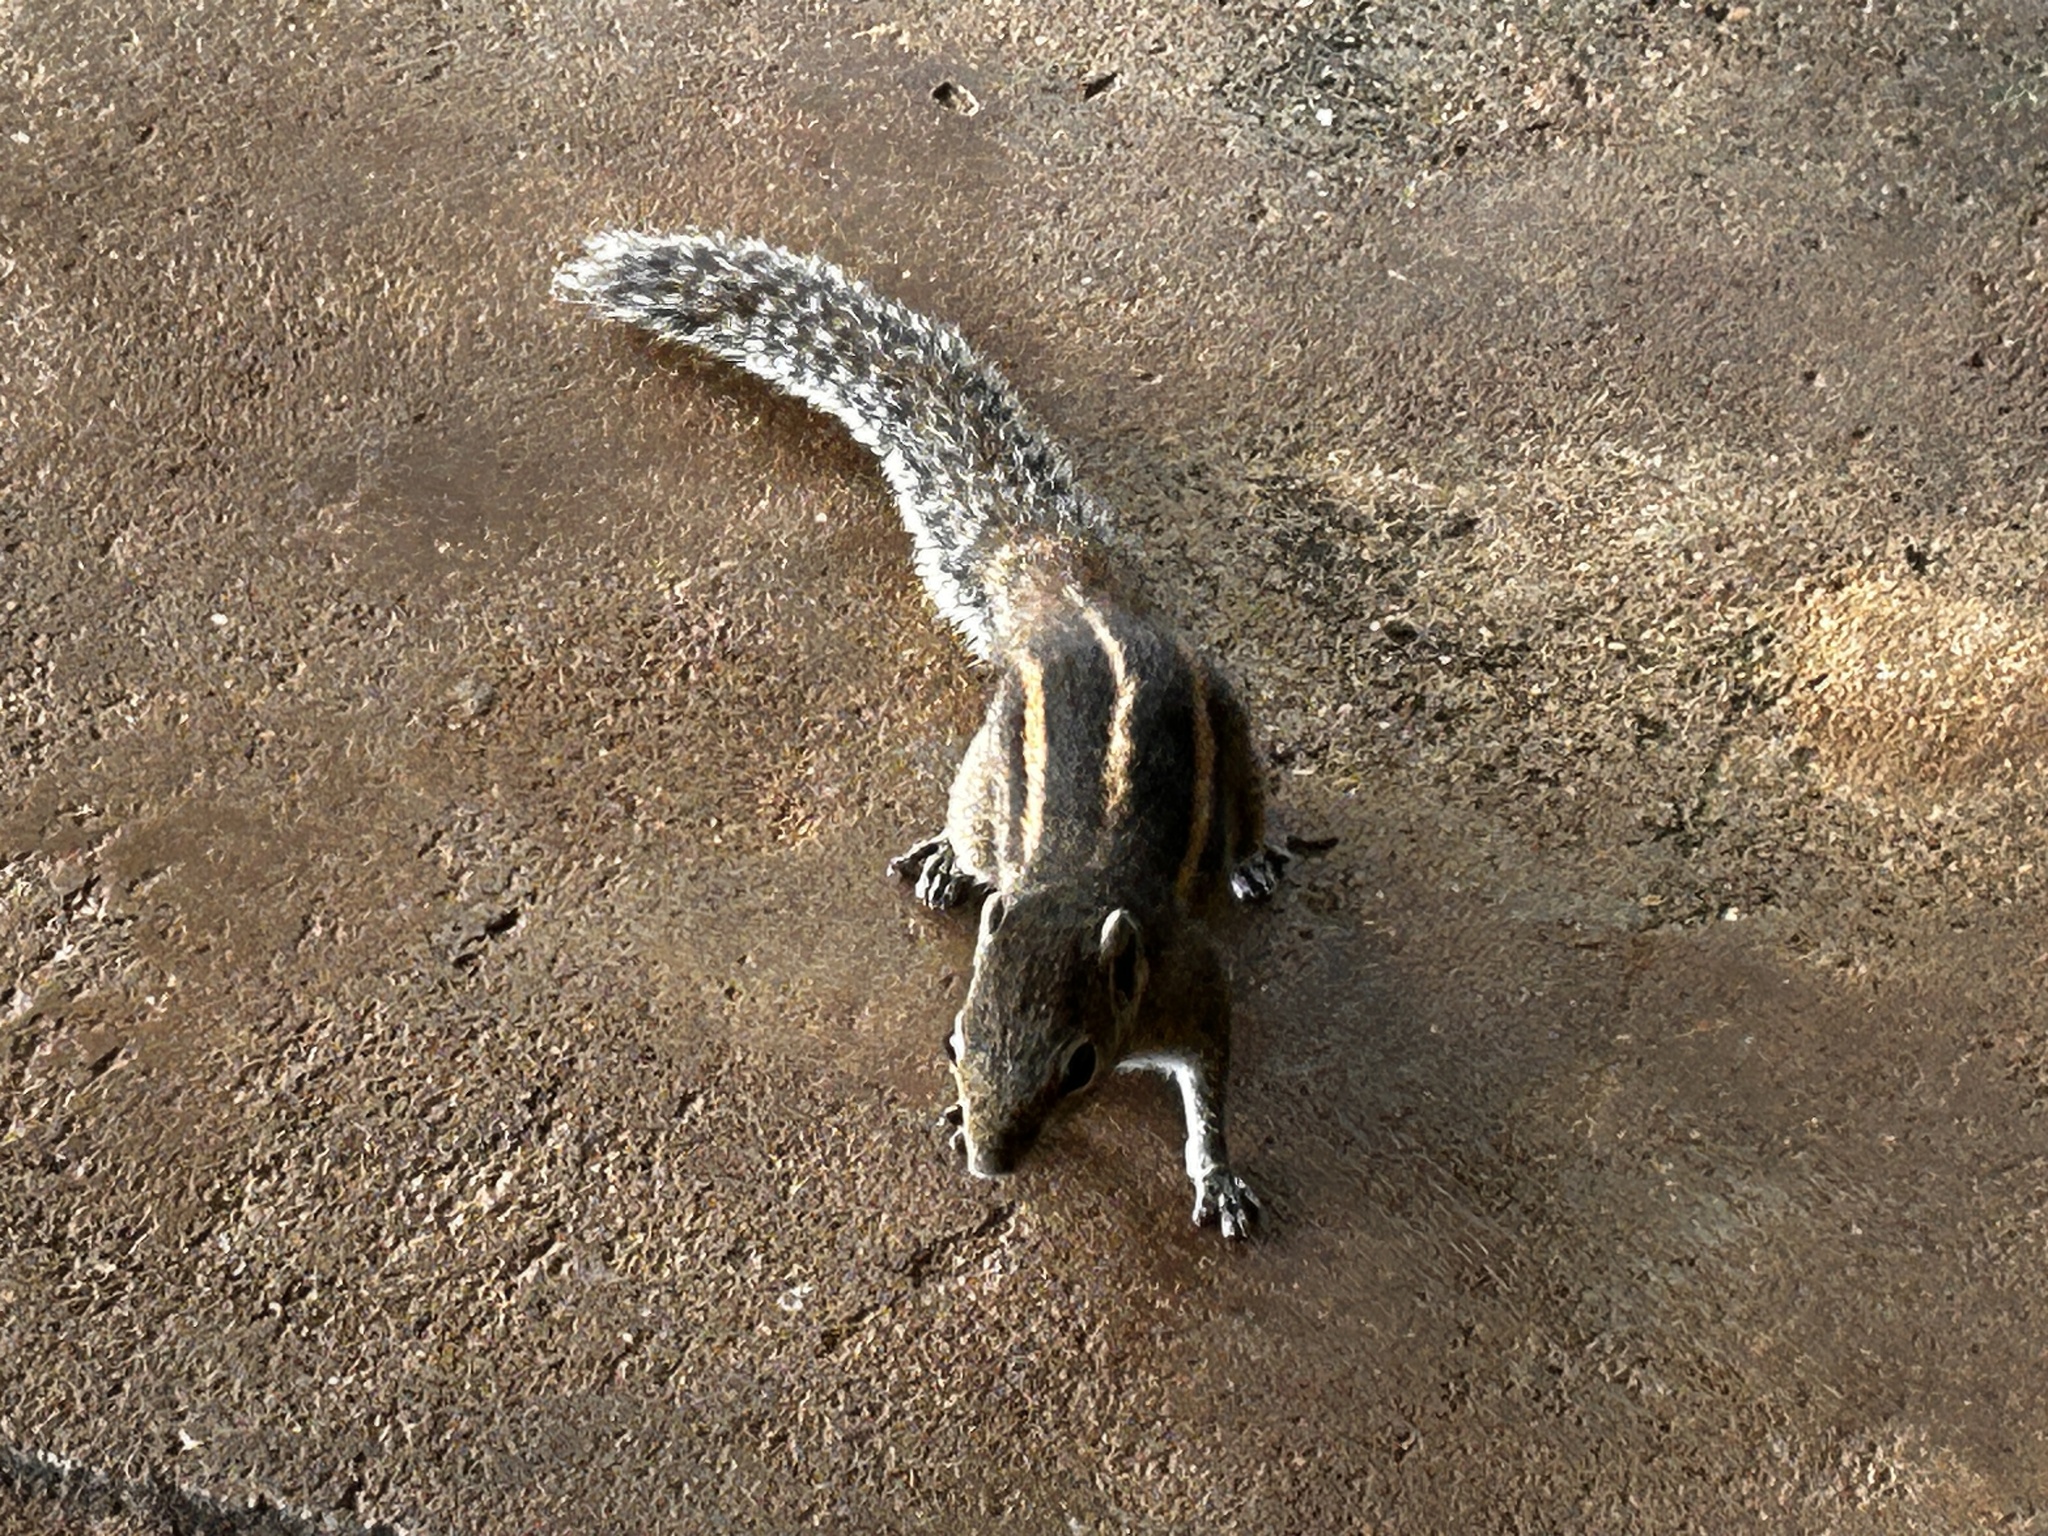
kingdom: Animalia
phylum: Chordata
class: Mammalia
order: Rodentia
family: Sciuridae
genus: Funambulus
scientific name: Funambulus palmarum
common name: Indian palm squirrel
